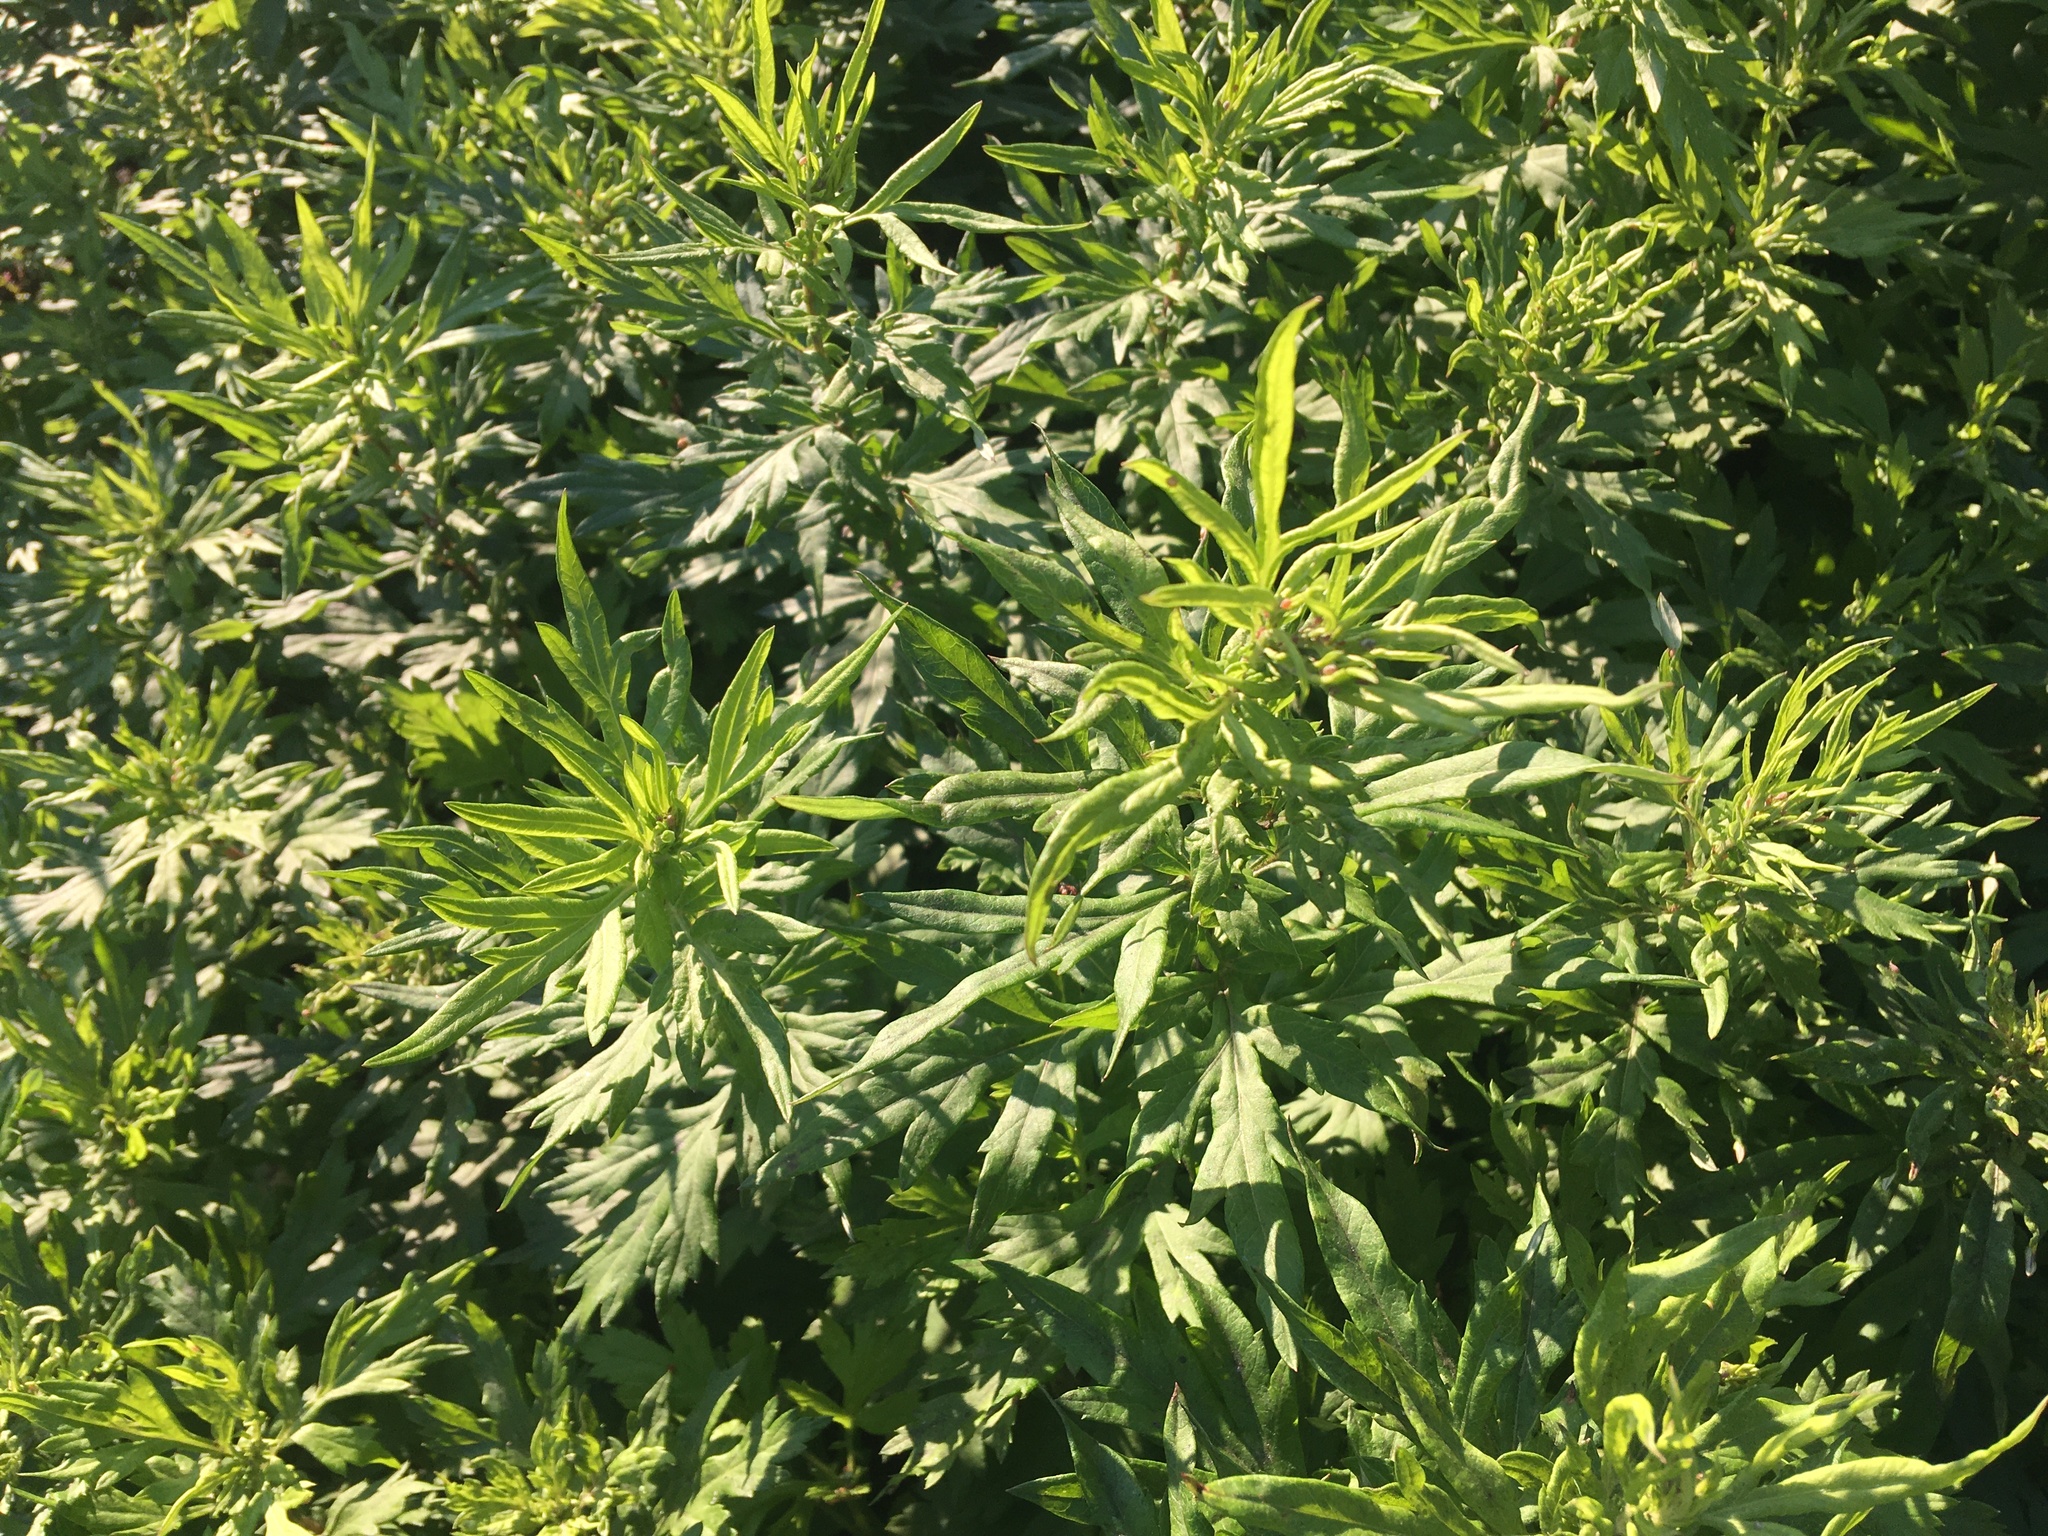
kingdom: Plantae
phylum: Tracheophyta
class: Magnoliopsida
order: Asterales
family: Asteraceae
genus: Artemisia
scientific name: Artemisia vulgaris
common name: Mugwort
